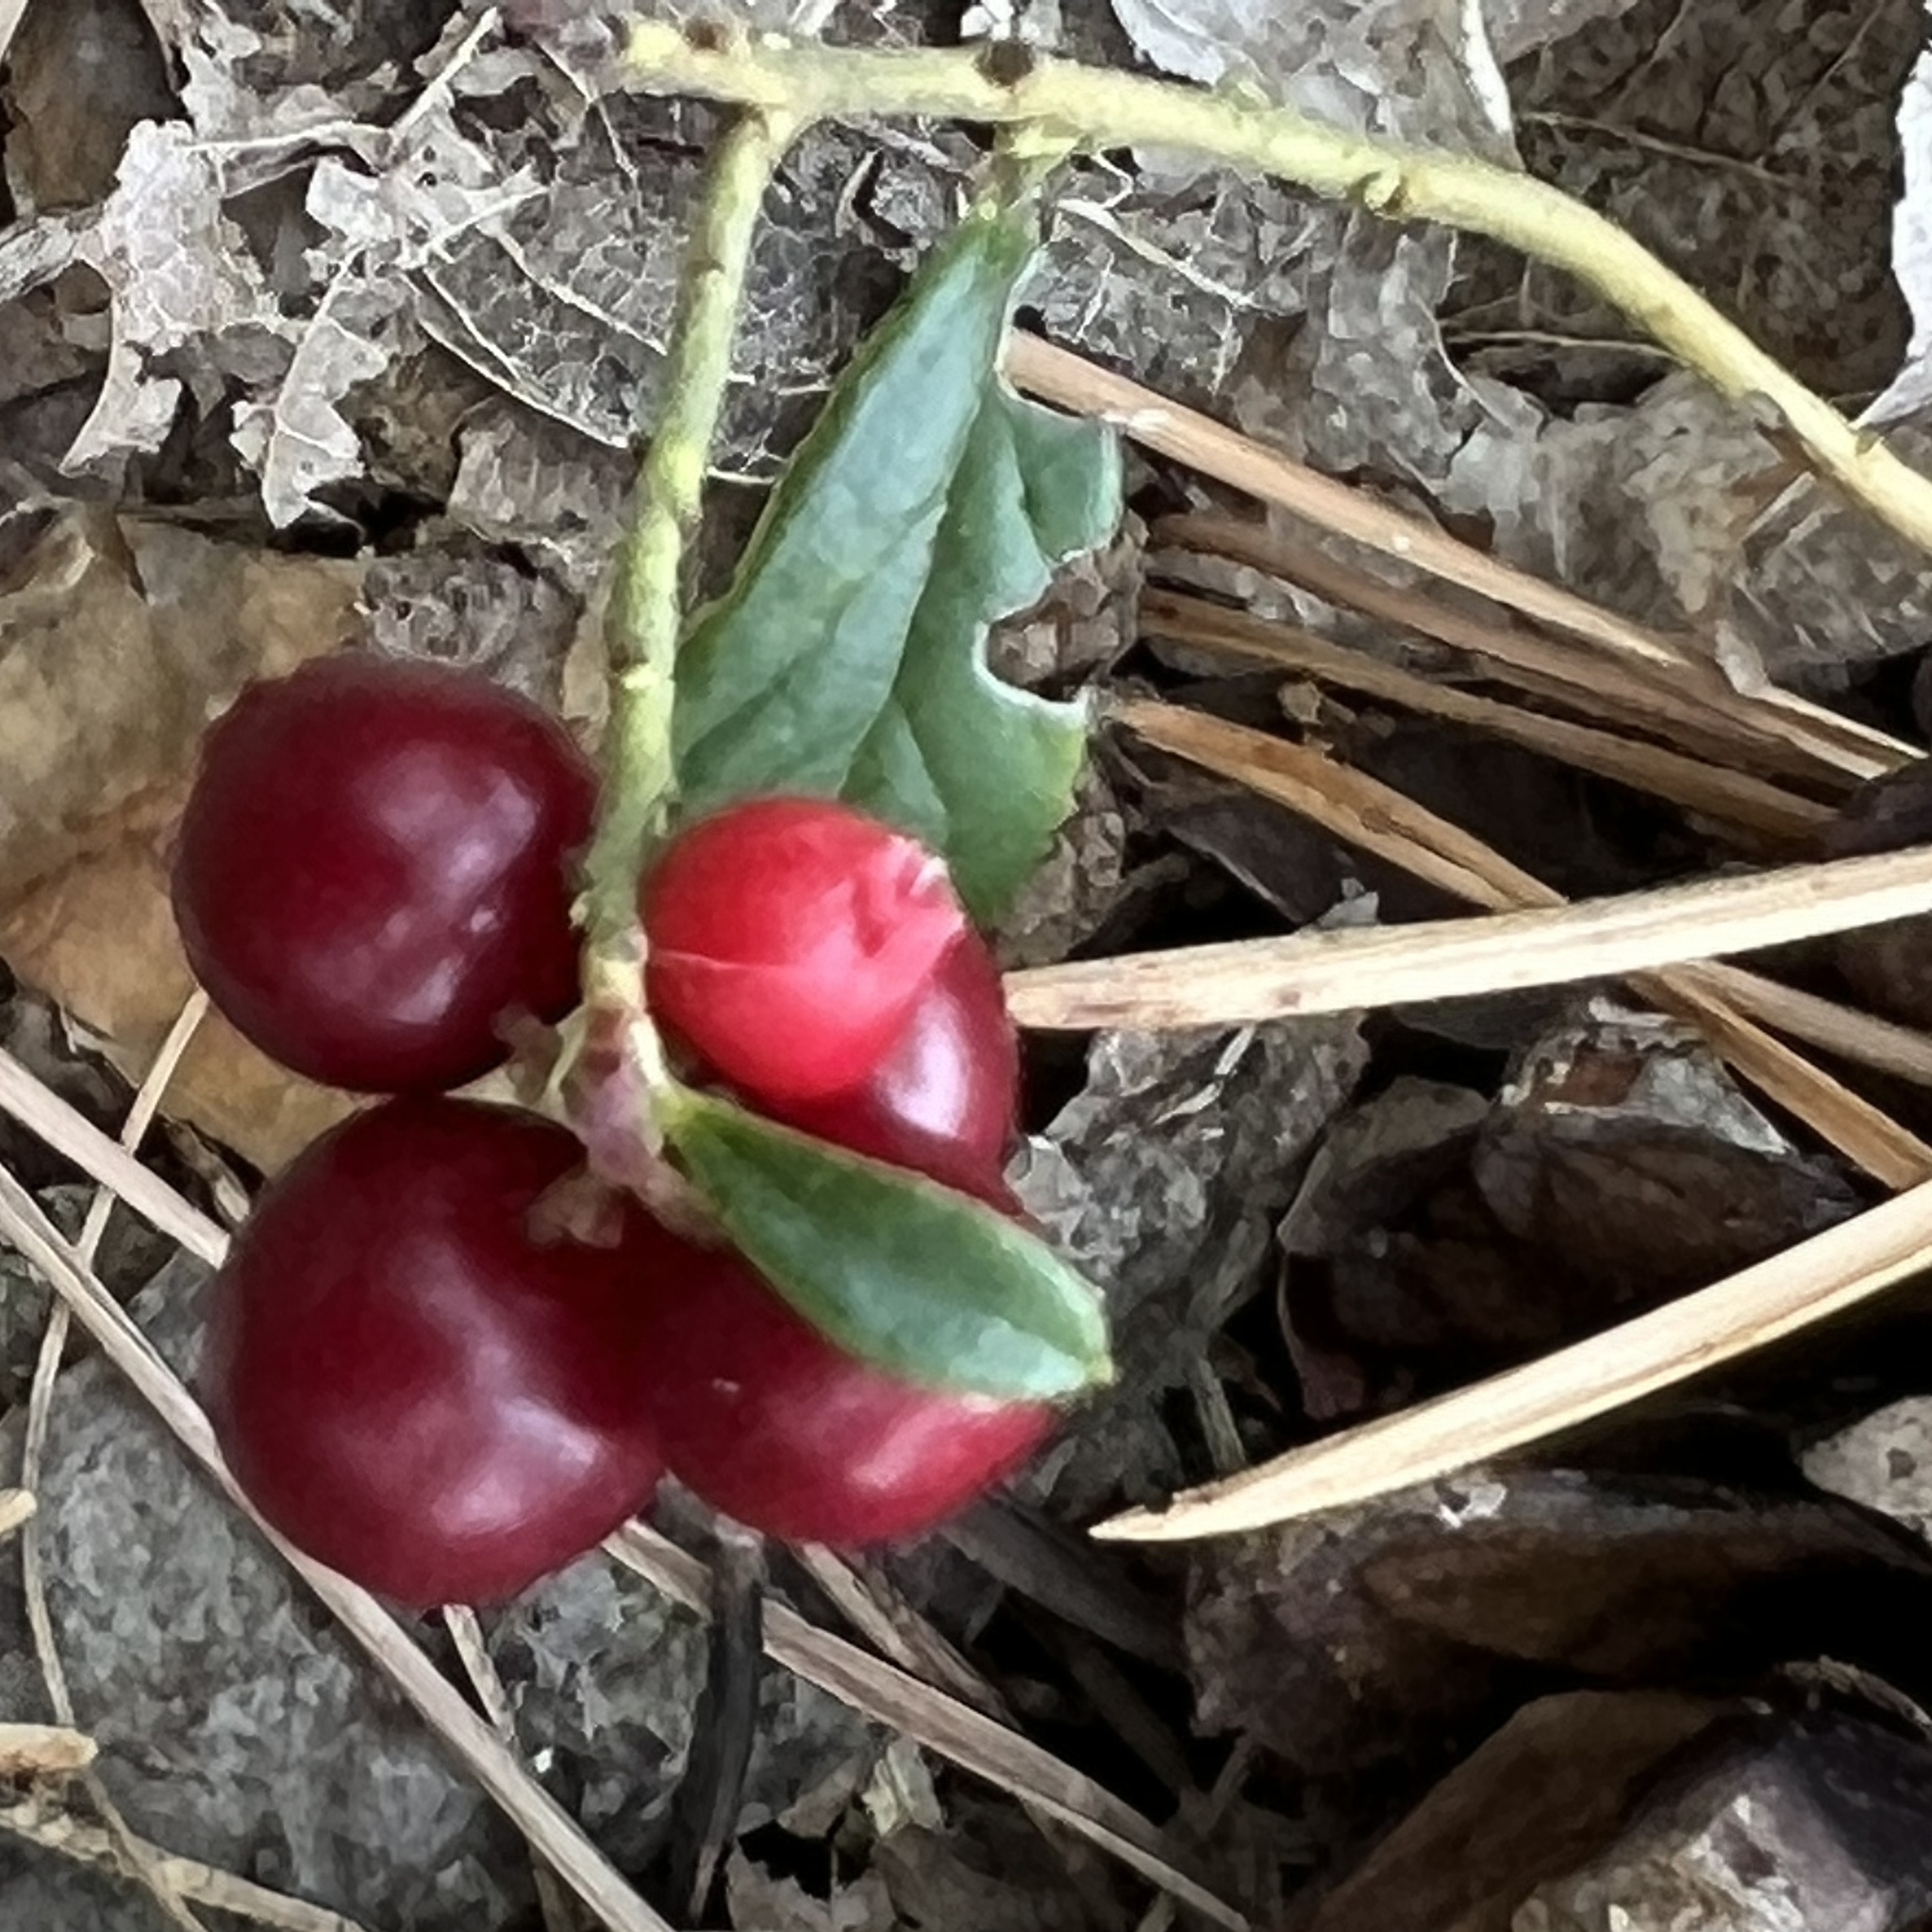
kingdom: Plantae
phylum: Tracheophyta
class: Magnoliopsida
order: Ericales
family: Ericaceae
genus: Vaccinium
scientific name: Vaccinium vitis-idaea
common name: Cowberry
